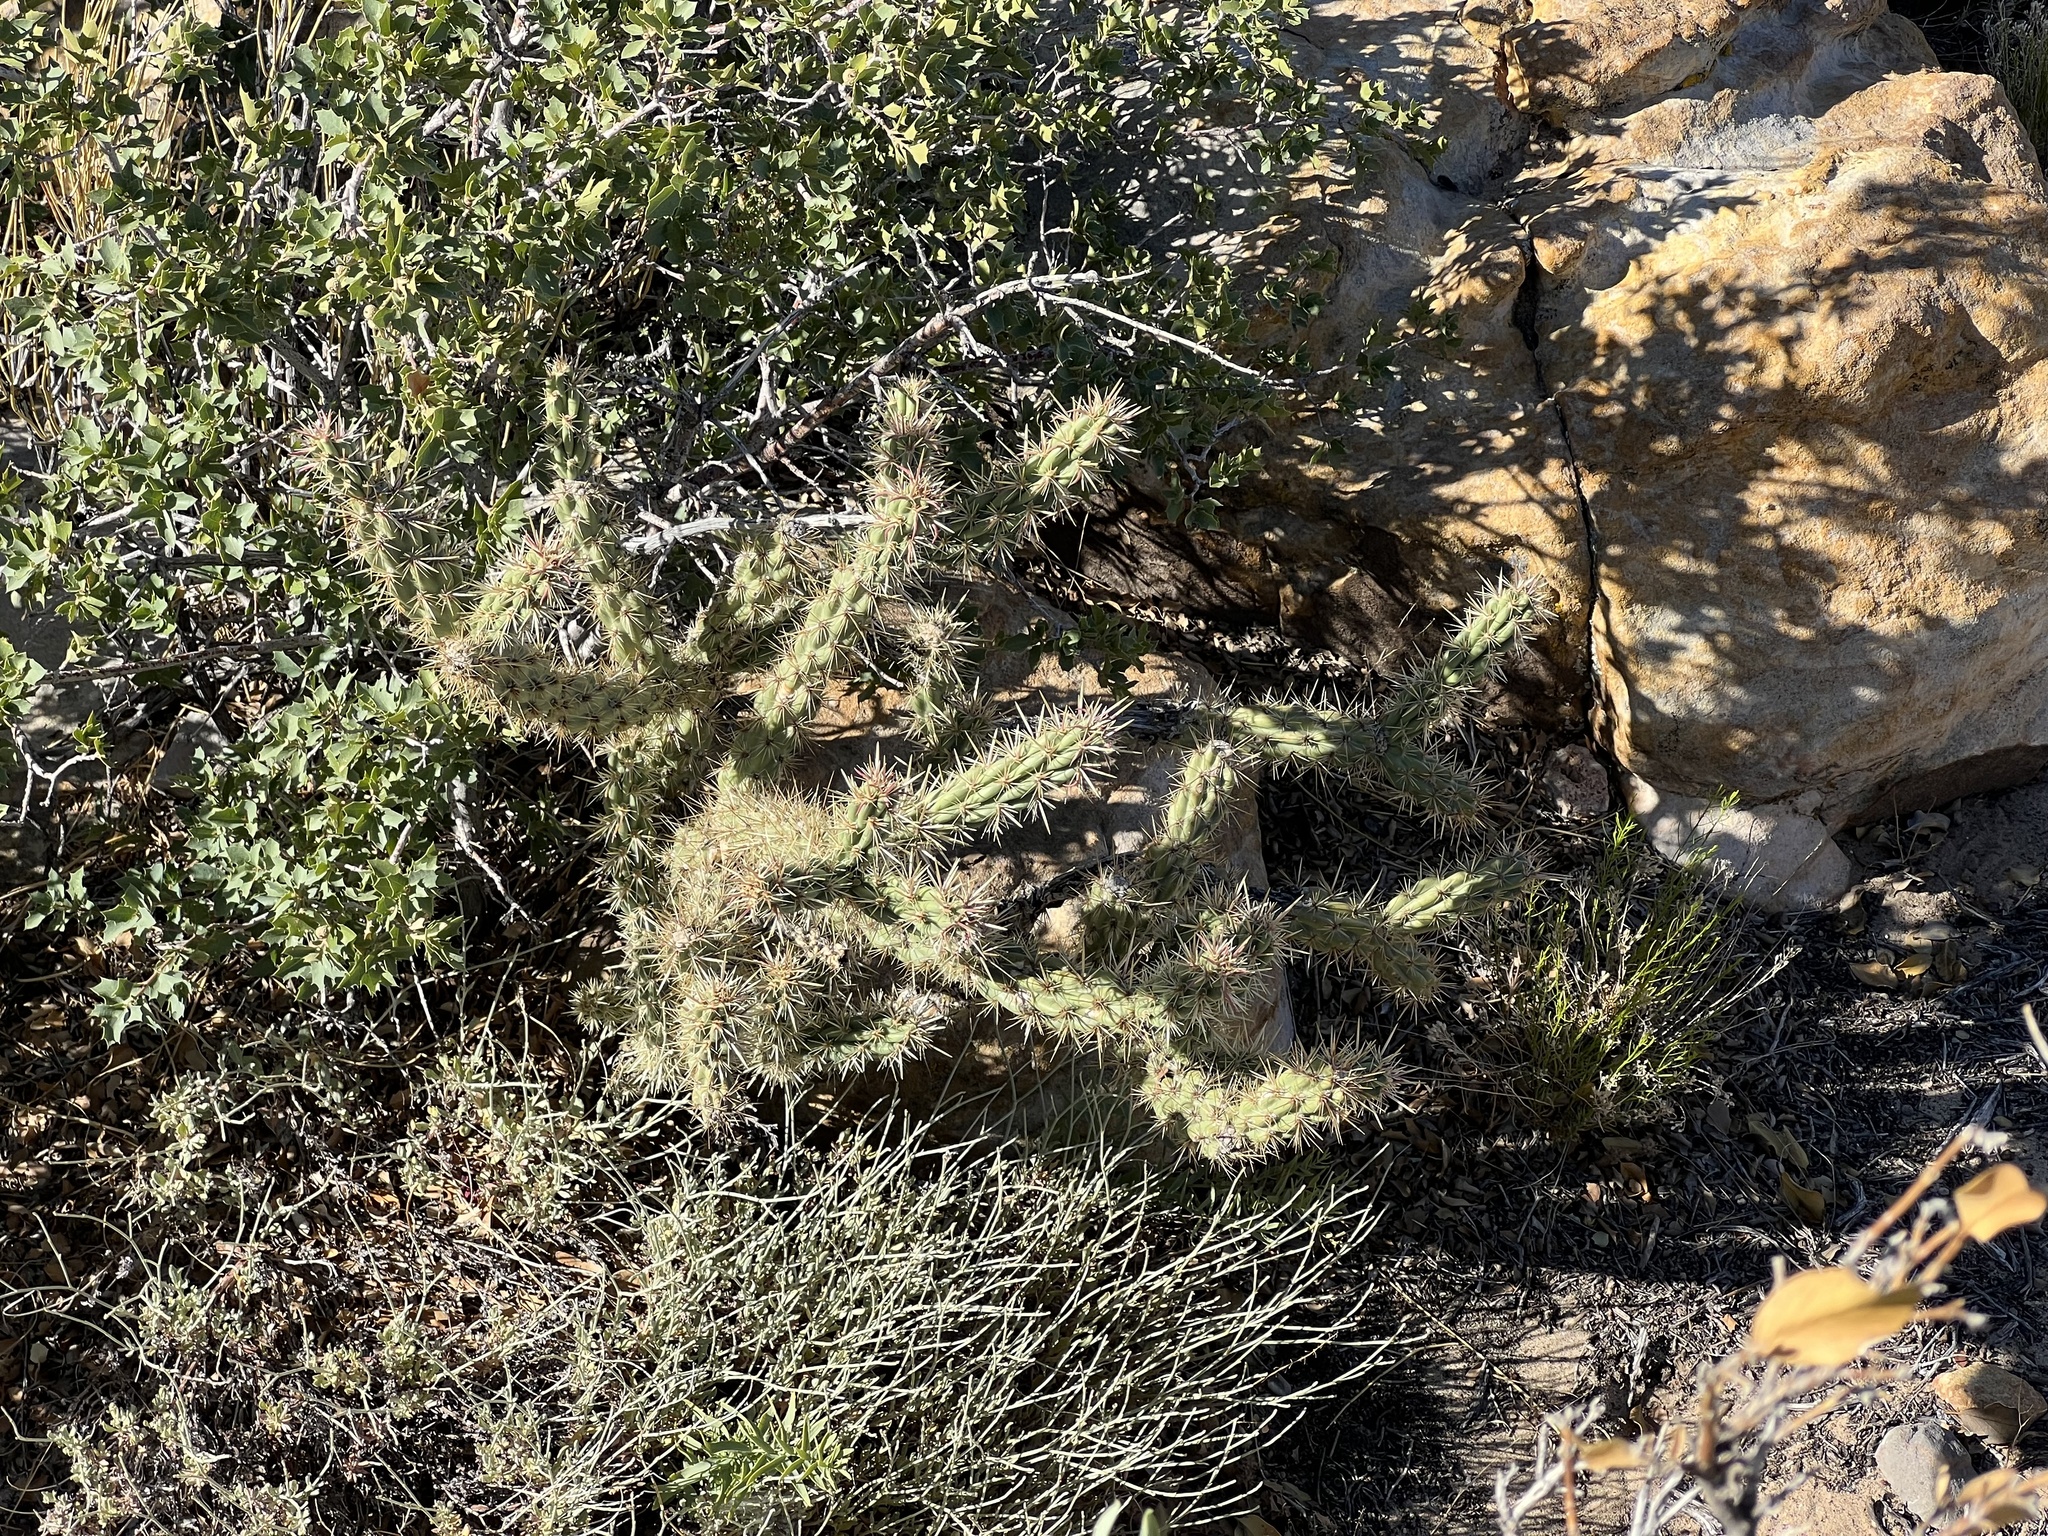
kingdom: Plantae
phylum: Tracheophyta
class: Magnoliopsida
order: Caryophyllales
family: Cactaceae
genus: Cylindropuntia
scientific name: Cylindropuntia acanthocarpa
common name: Buckhorn cholla
